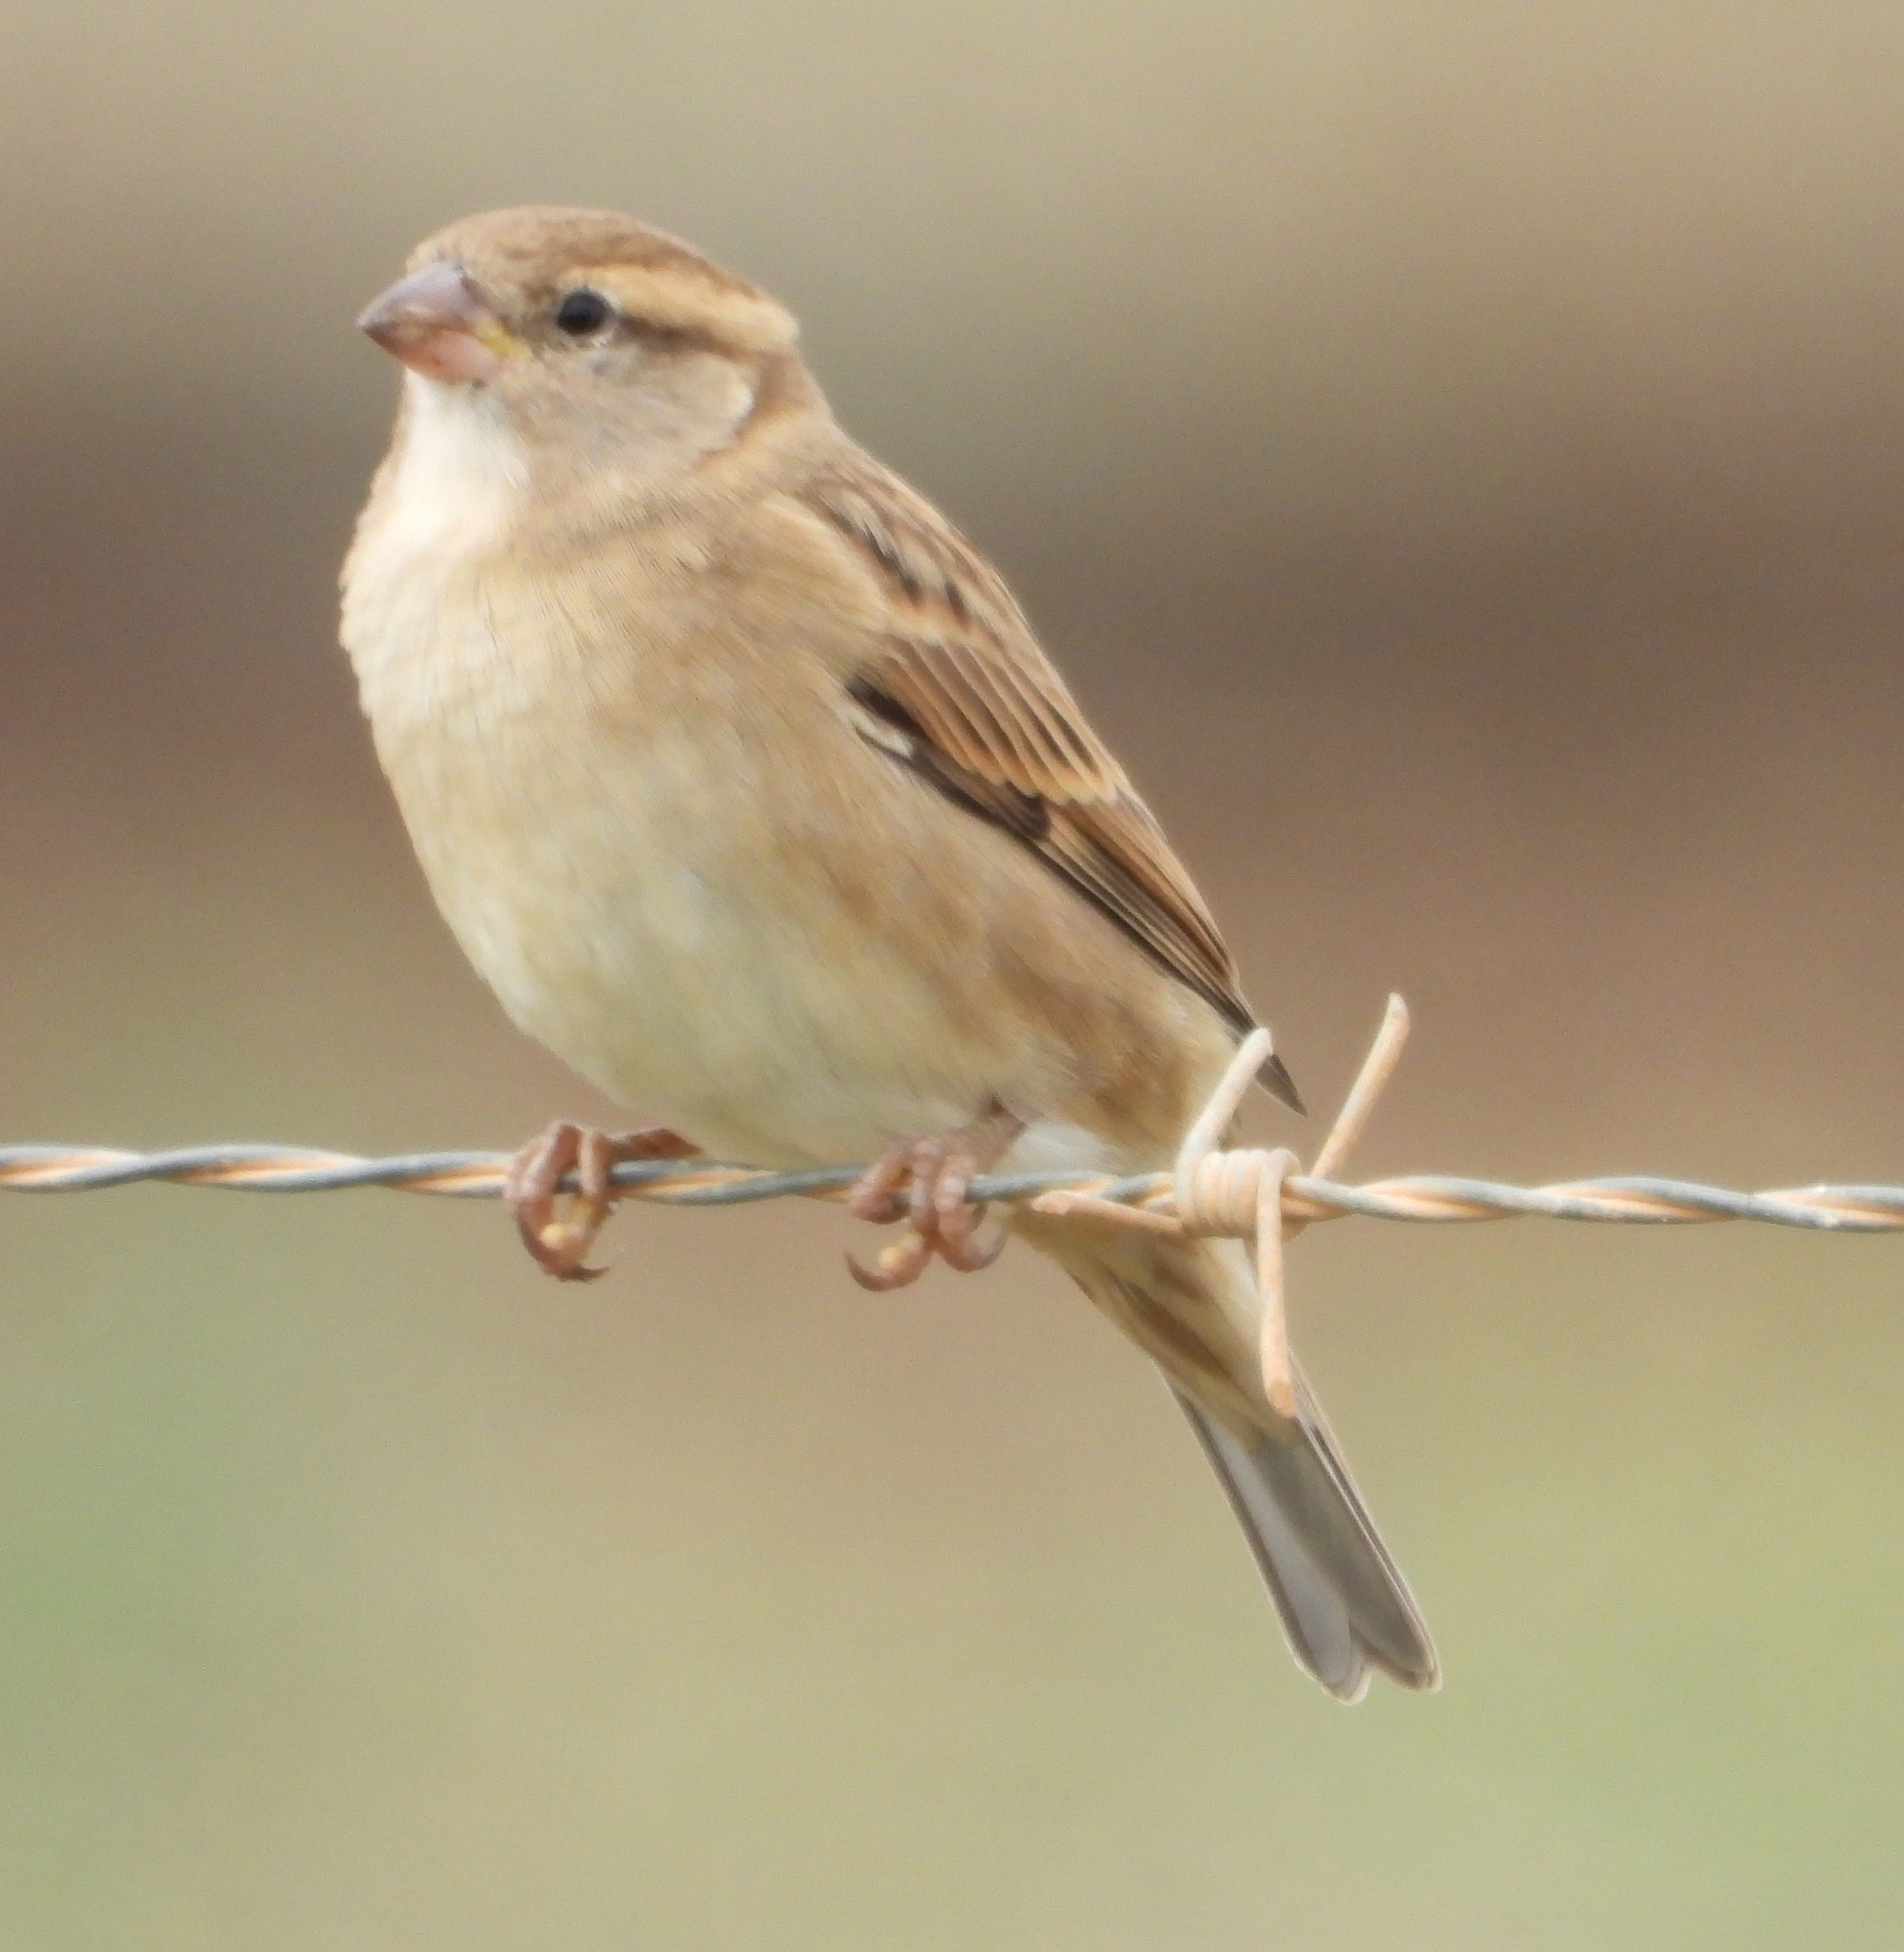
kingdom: Animalia
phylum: Chordata
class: Aves
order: Passeriformes
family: Passeridae
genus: Passer
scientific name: Passer domesticus
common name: House sparrow
